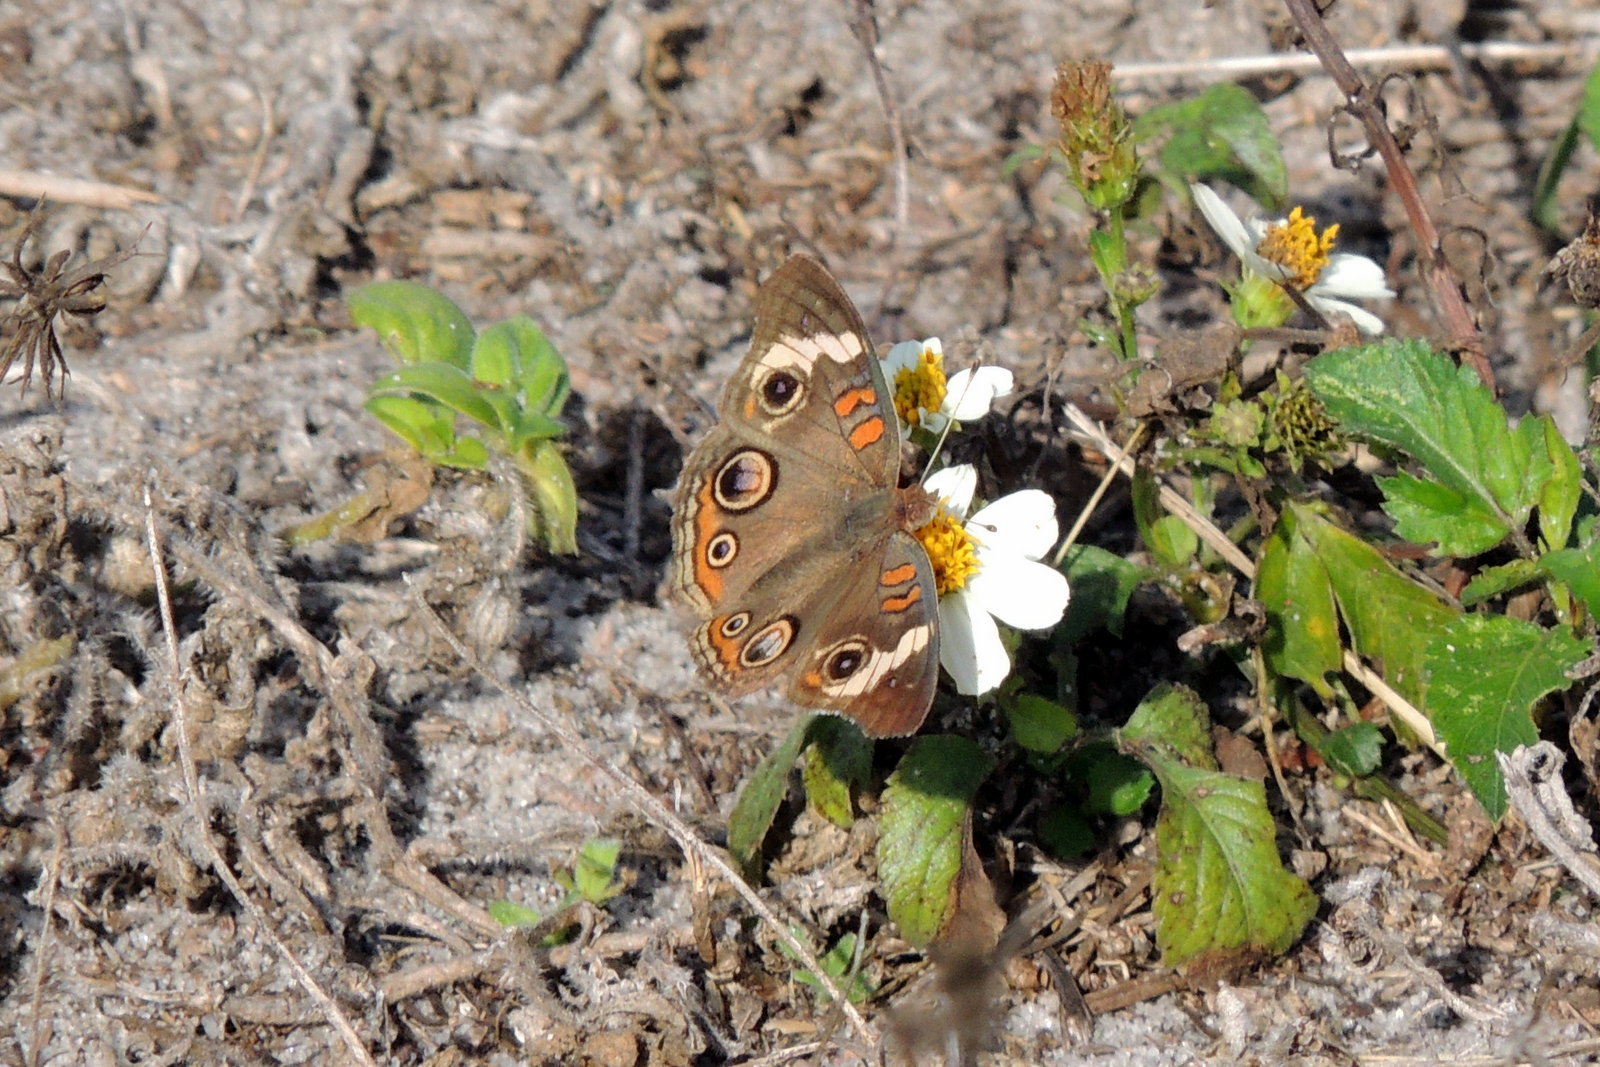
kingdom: Animalia
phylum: Arthropoda
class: Insecta
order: Lepidoptera
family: Nymphalidae
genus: Junonia
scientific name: Junonia coenia
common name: Common buckeye
